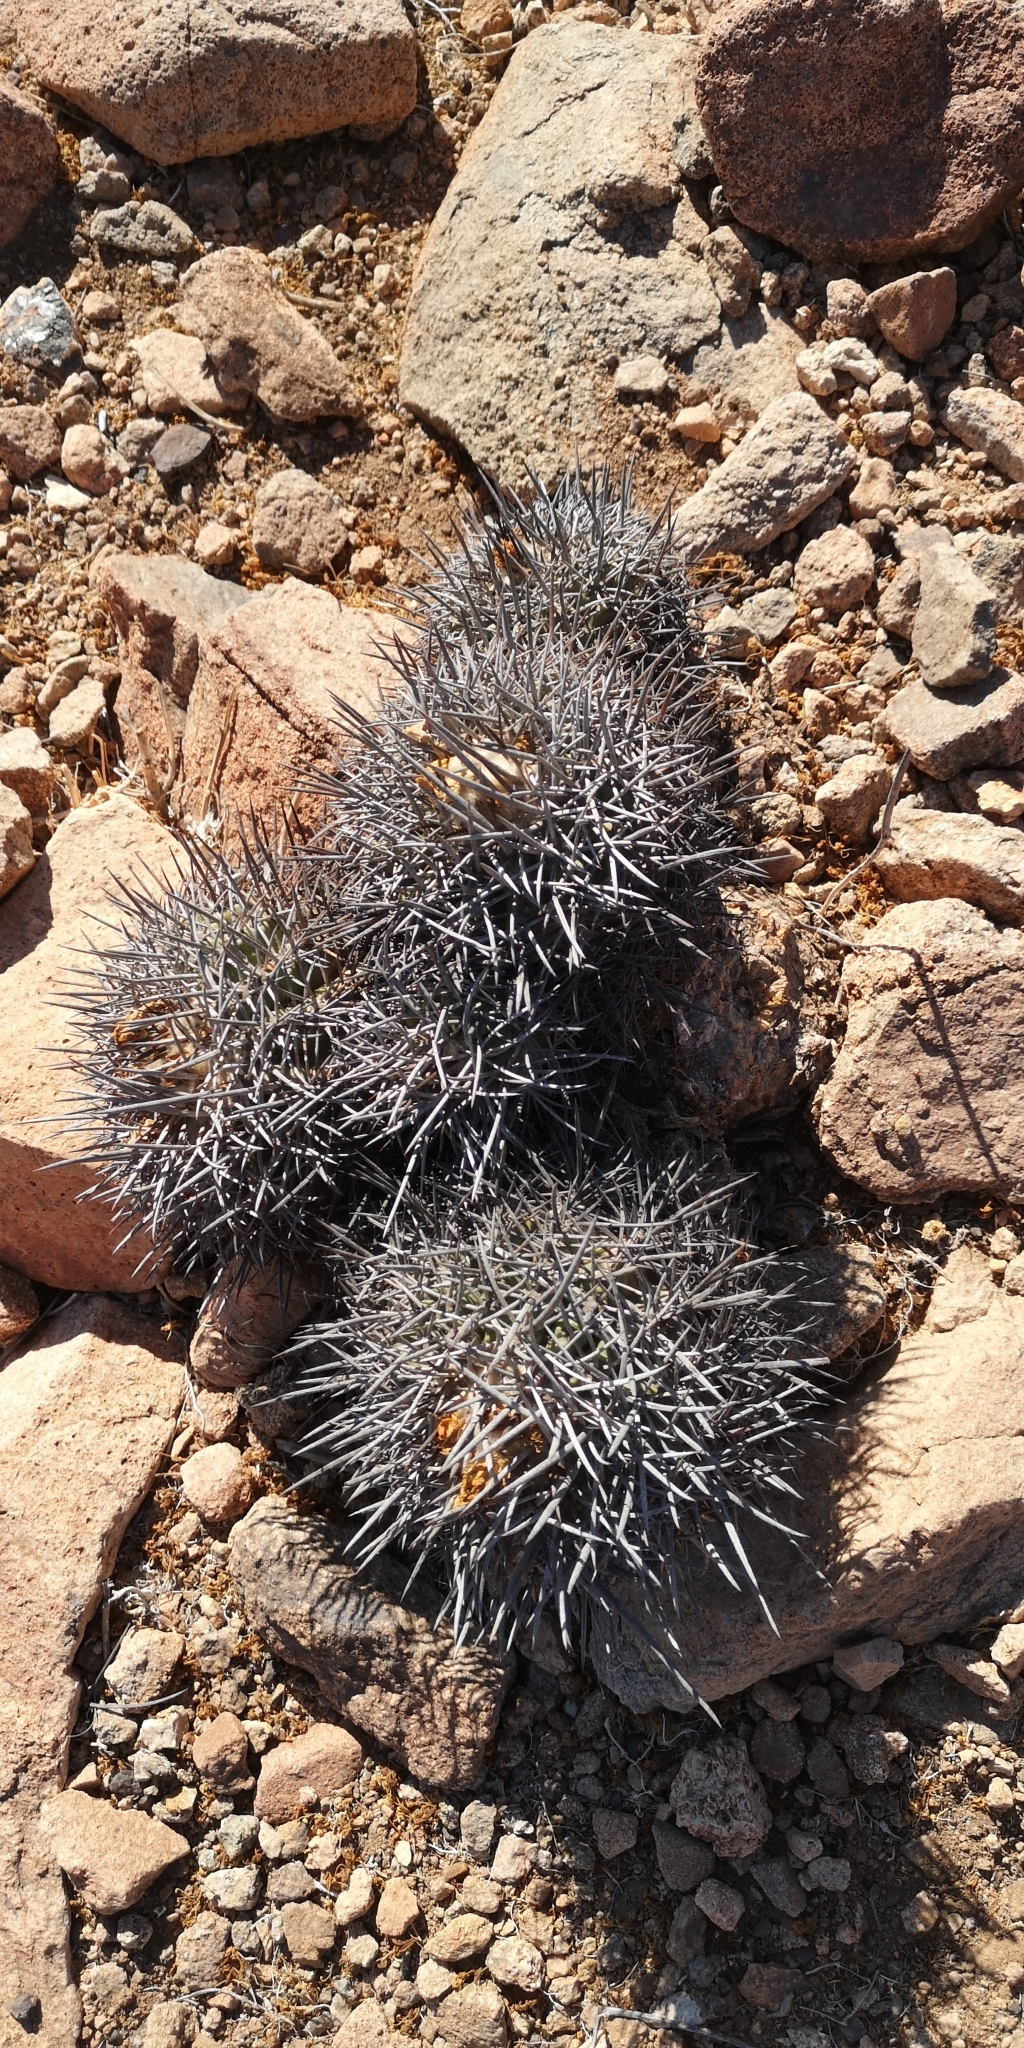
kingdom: Plantae
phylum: Tracheophyta
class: Magnoliopsida
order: Caryophyllales
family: Cactaceae
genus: Copiapoa
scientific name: Copiapoa coquimbana
